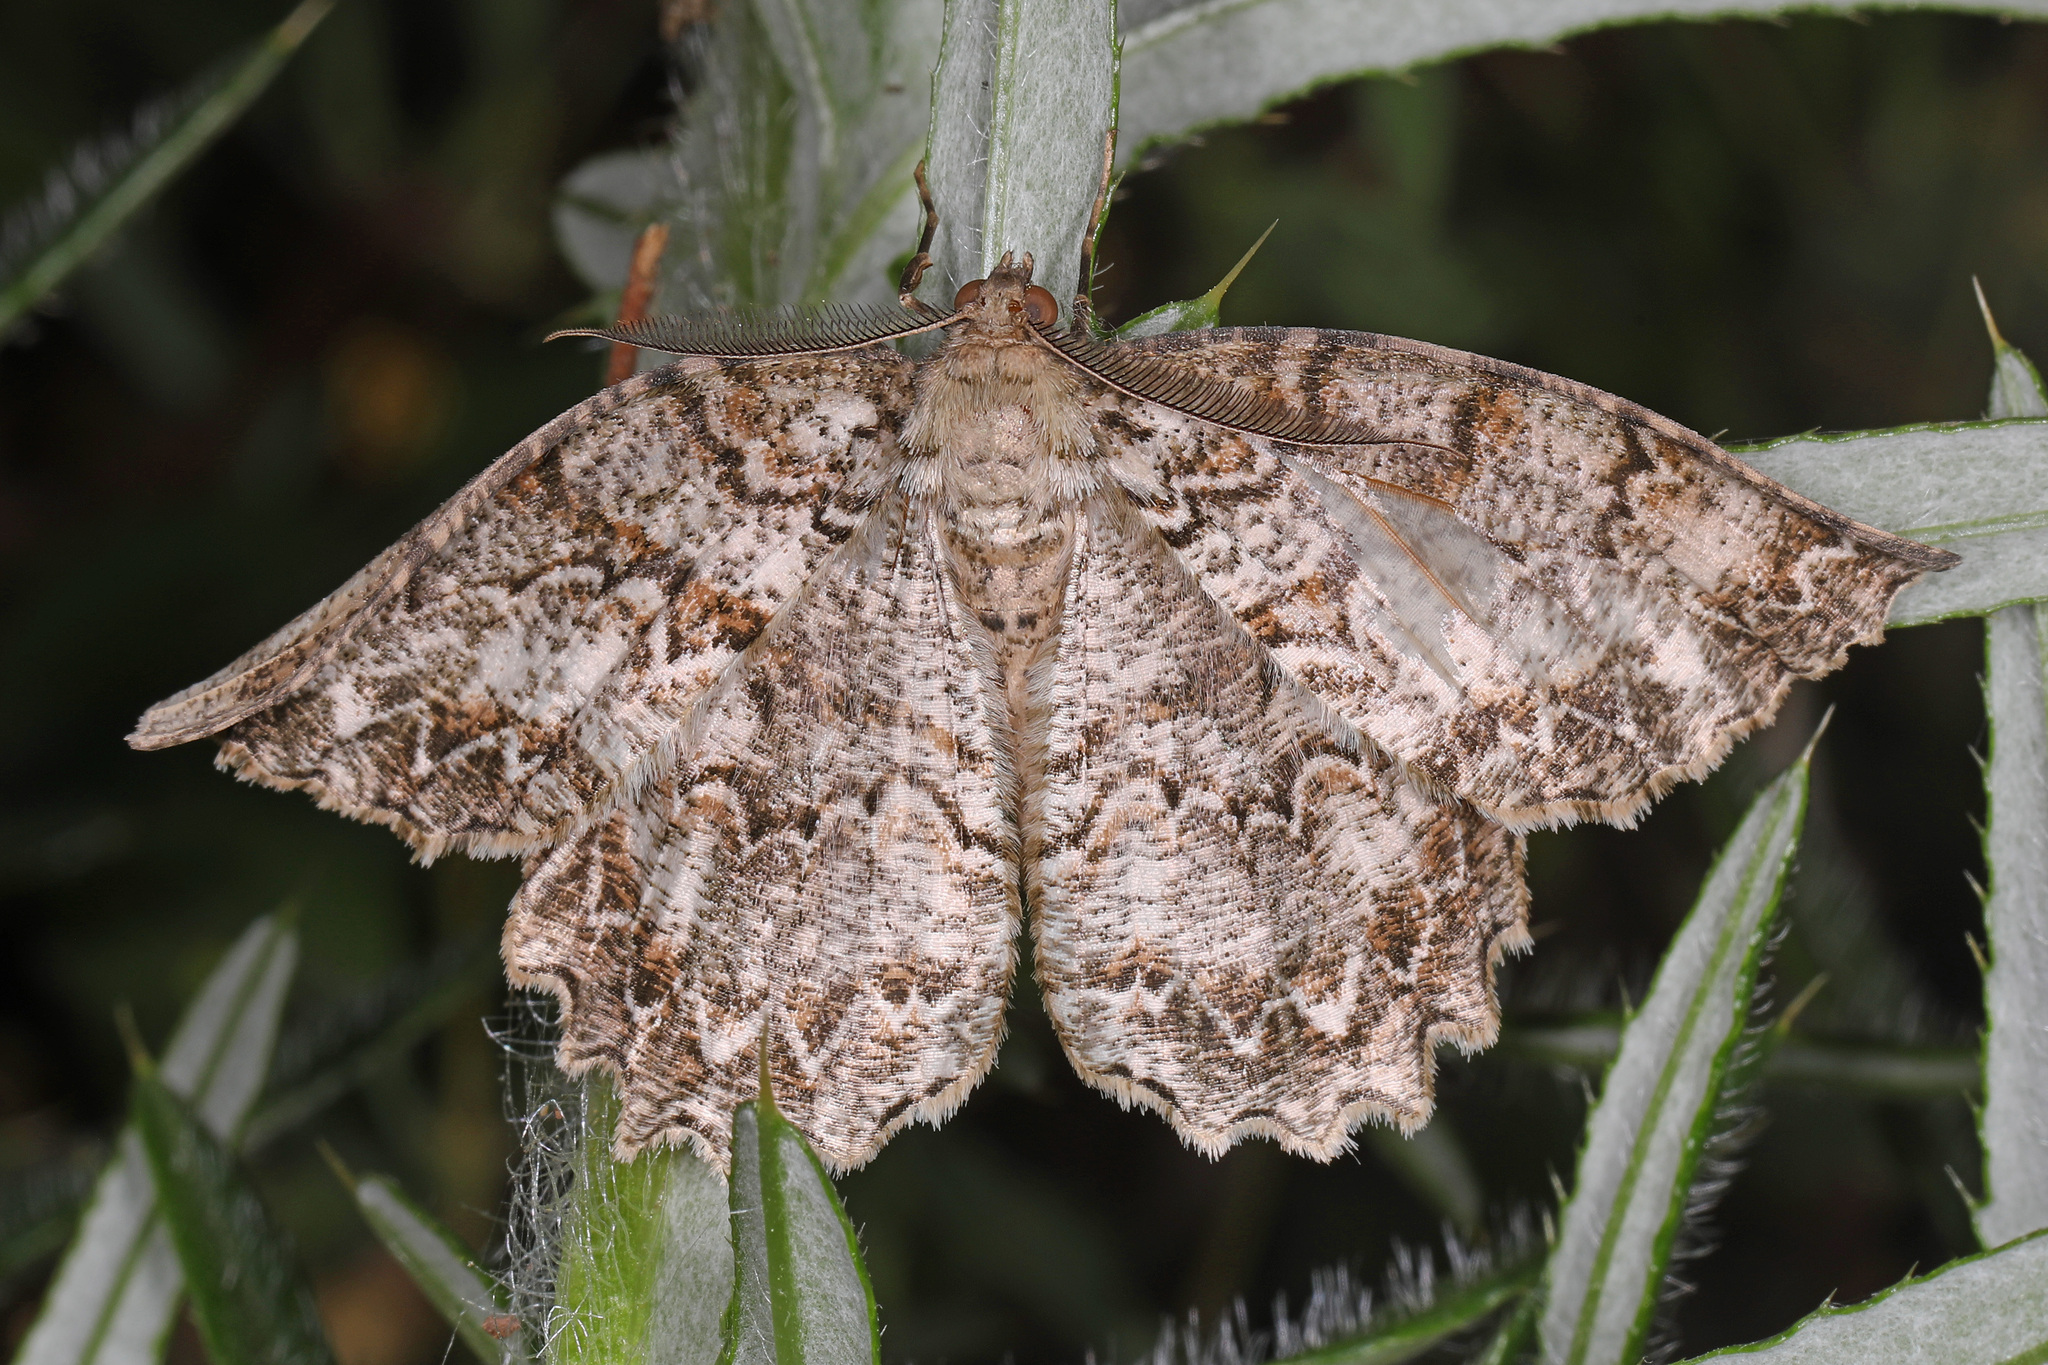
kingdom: Animalia
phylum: Arthropoda
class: Insecta
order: Lepidoptera
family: Geometridae
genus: Epimecis
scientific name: Epimecis hortaria
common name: Tulip-tree beauty
